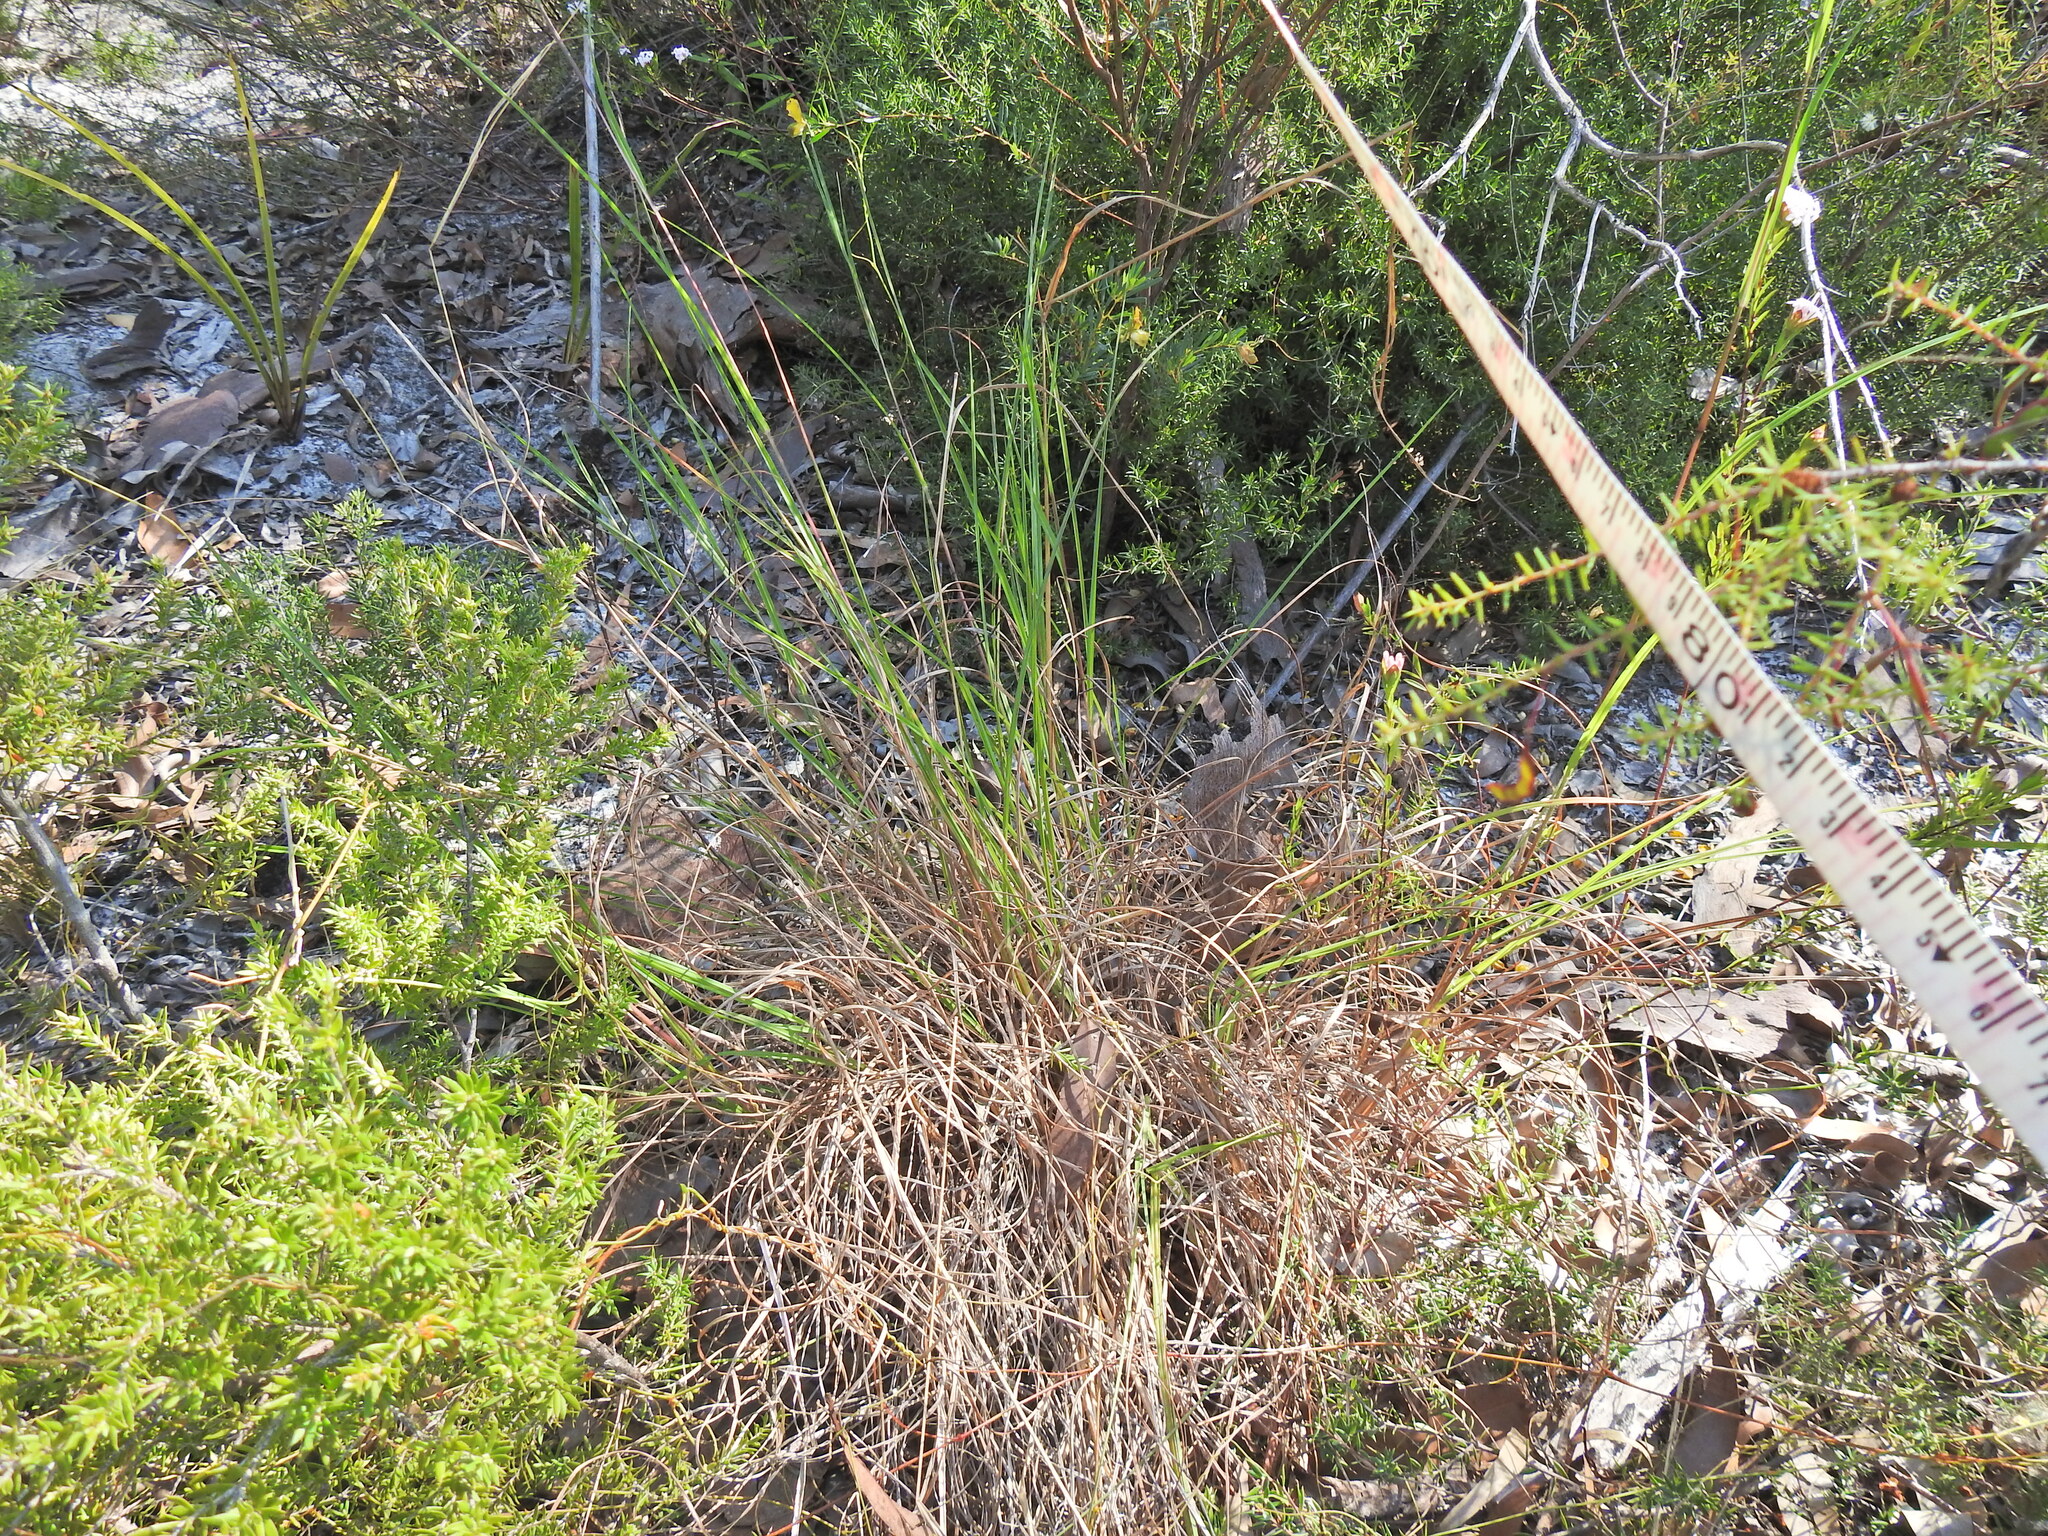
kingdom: Plantae
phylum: Tracheophyta
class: Liliopsida
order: Poales
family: Poaceae
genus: Themeda
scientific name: Themeda triandra
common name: Kangaroo grass
